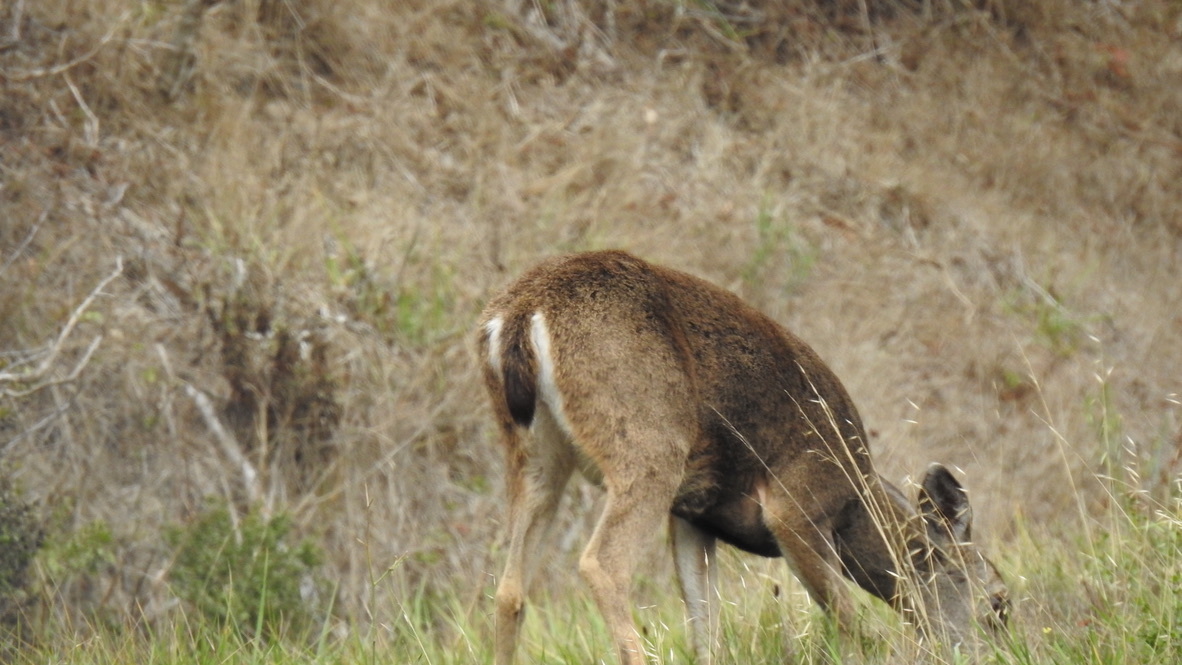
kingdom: Animalia
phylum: Chordata
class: Mammalia
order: Artiodactyla
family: Cervidae
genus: Odocoileus
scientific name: Odocoileus hemionus
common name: Mule deer
